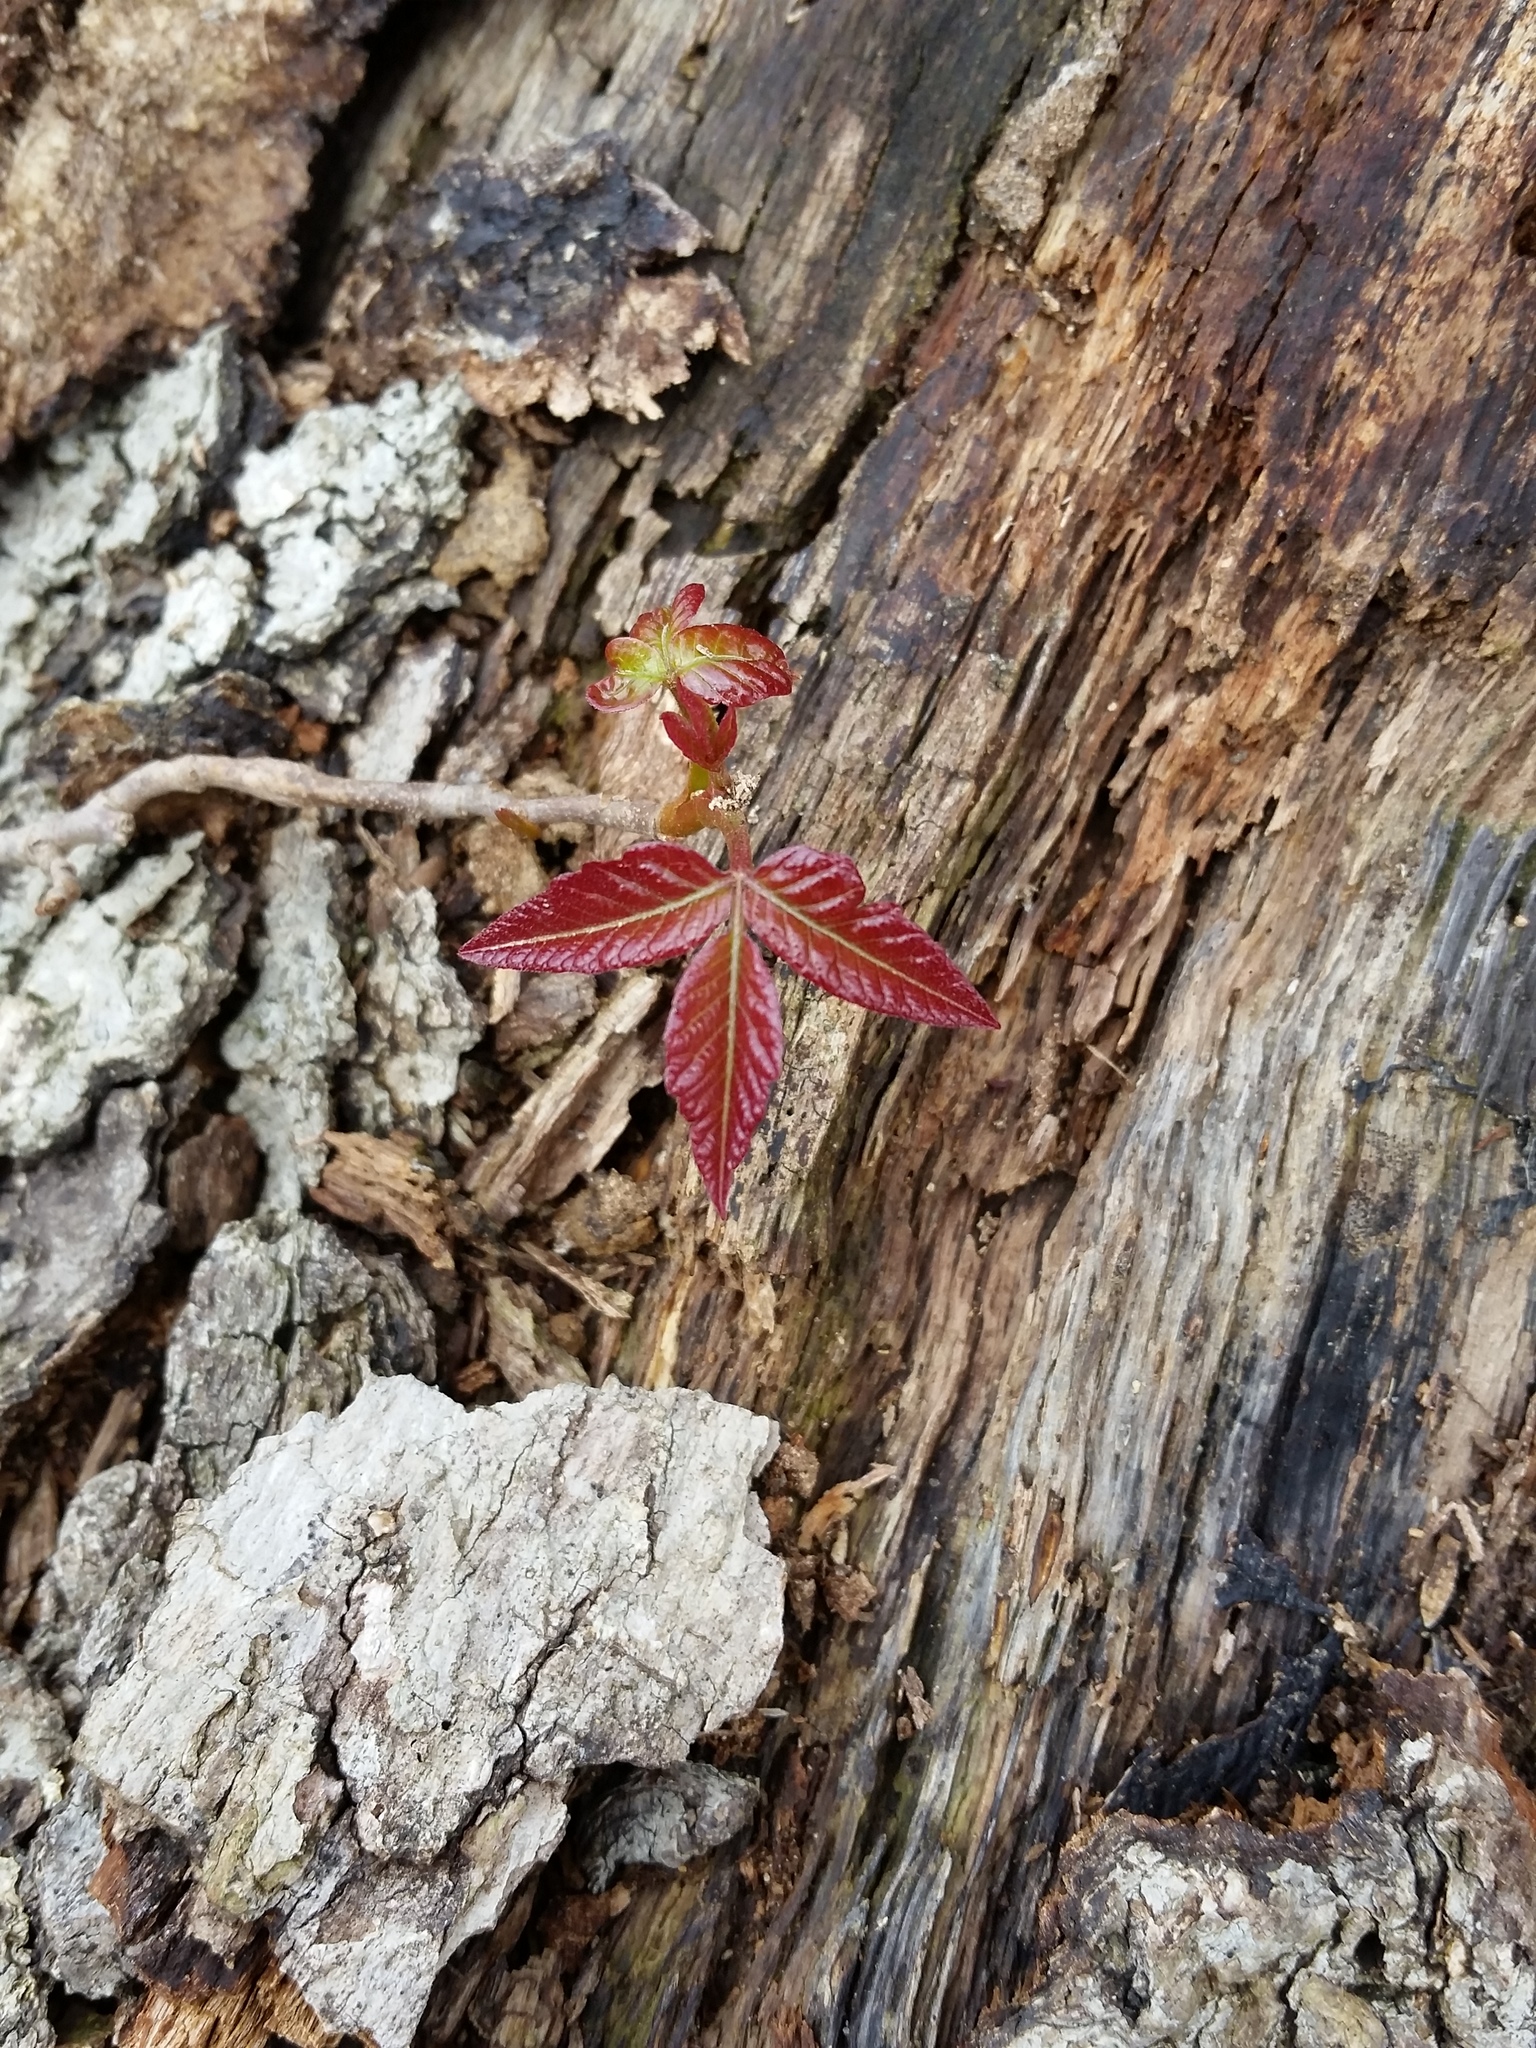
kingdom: Plantae
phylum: Tracheophyta
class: Magnoliopsida
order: Sapindales
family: Anacardiaceae
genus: Toxicodendron
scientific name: Toxicodendron radicans
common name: Poison ivy
